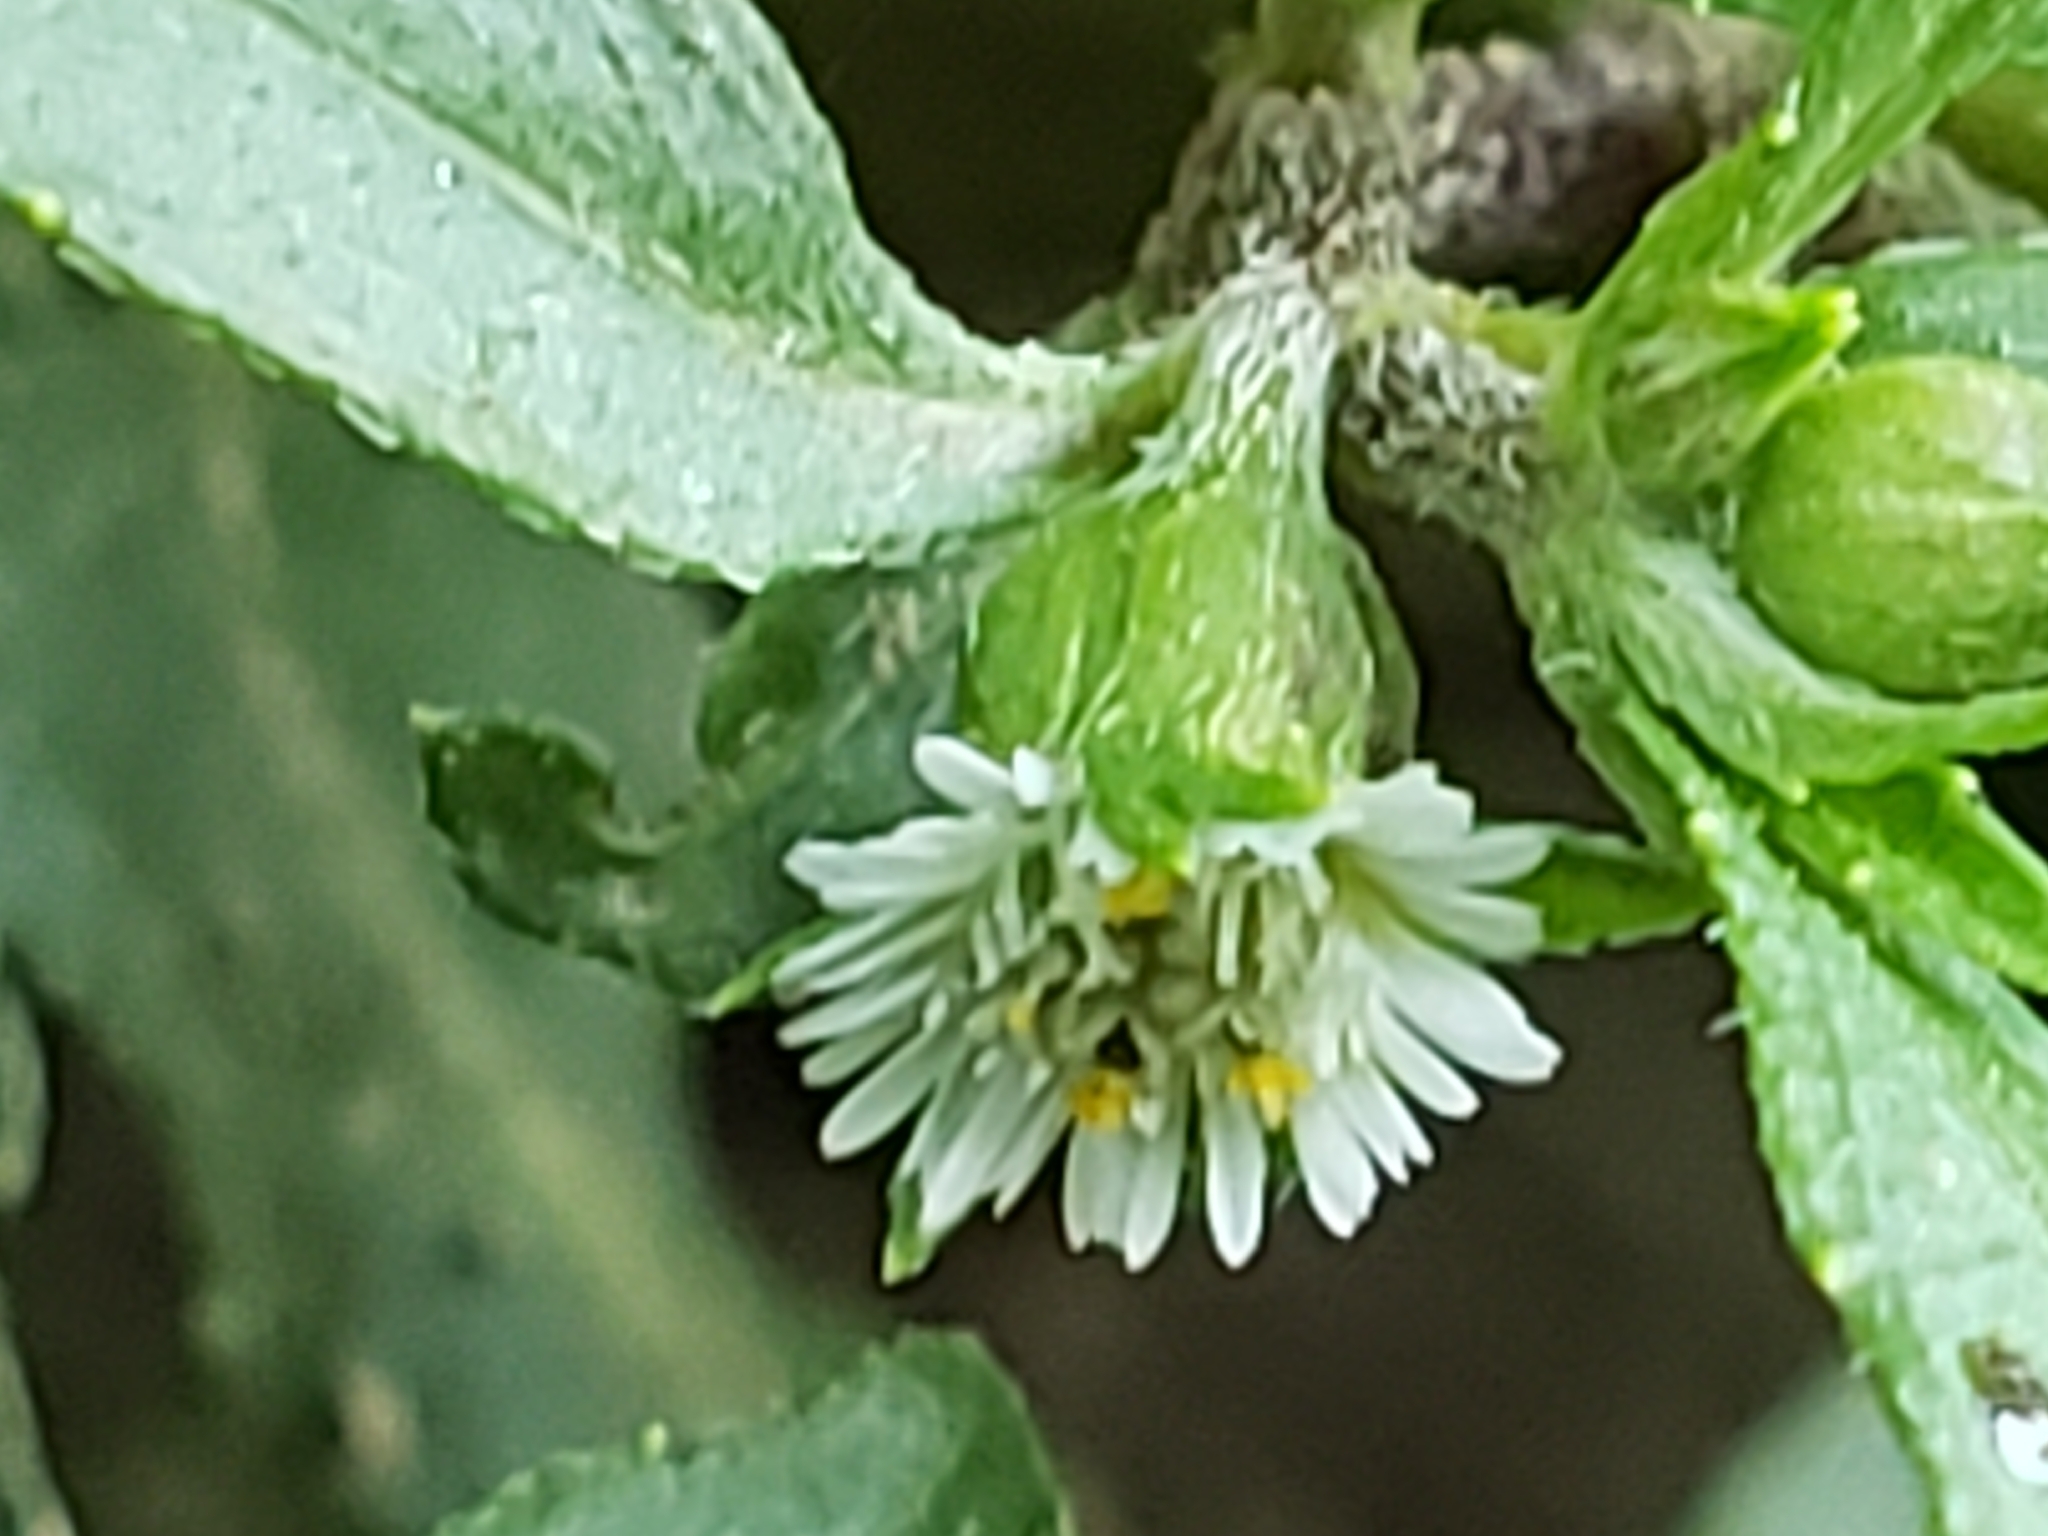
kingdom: Plantae
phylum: Tracheophyta
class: Magnoliopsida
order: Asterales
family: Asteraceae
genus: Eclipta
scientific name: Eclipta prostrata
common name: False daisy
